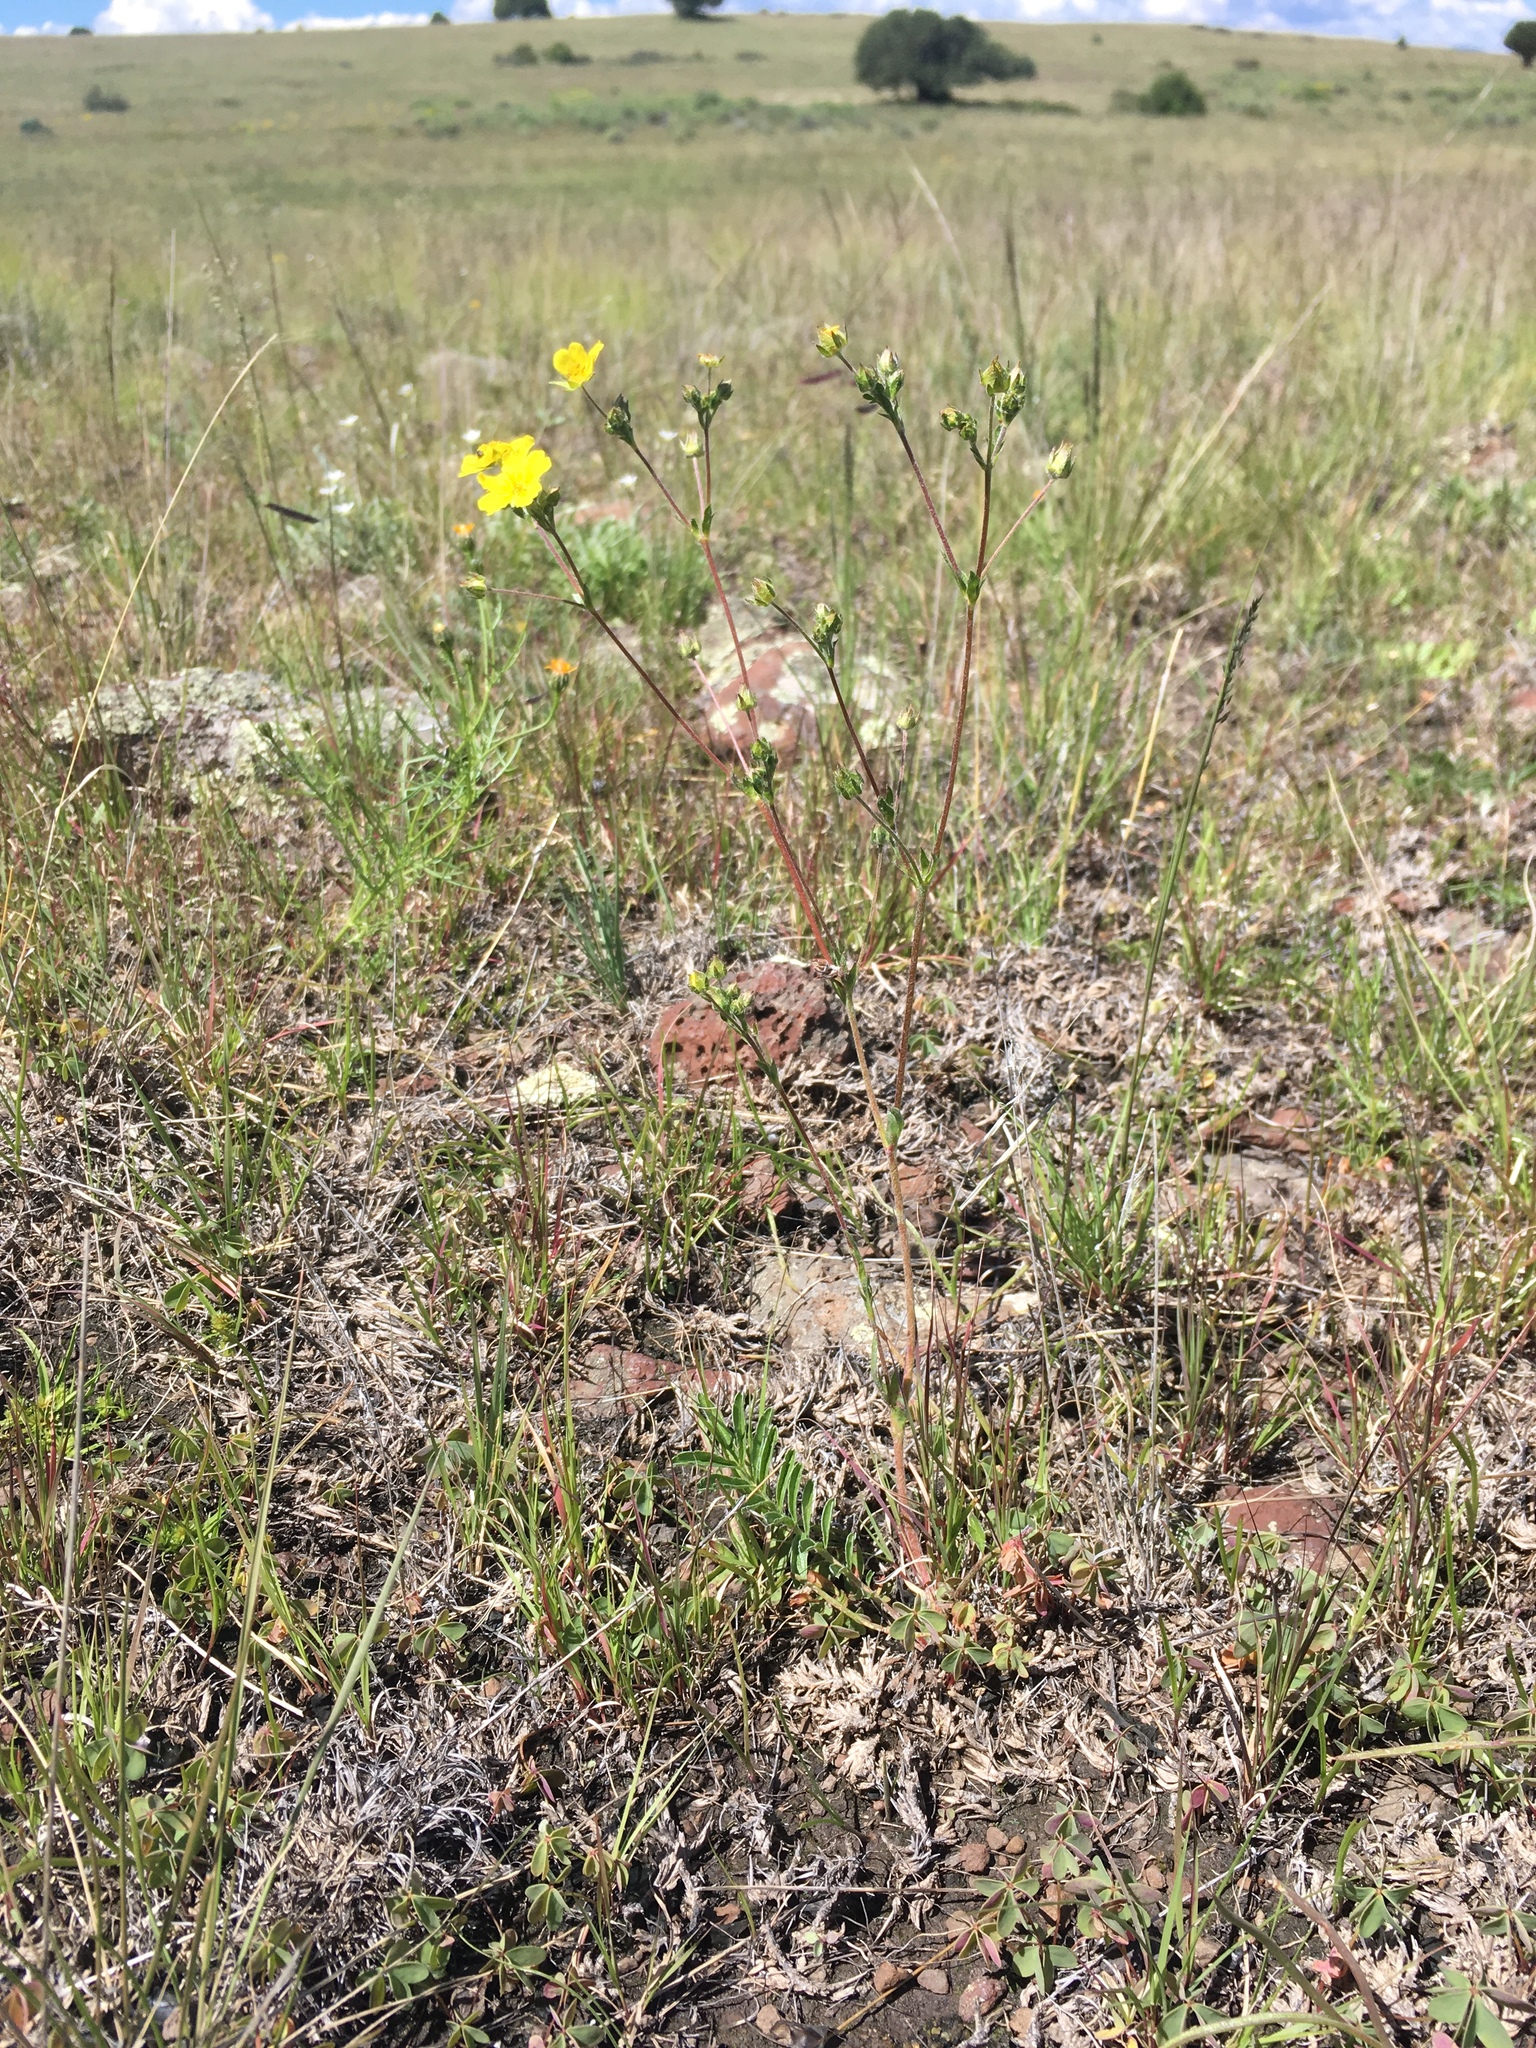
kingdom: Plantae
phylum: Tracheophyta
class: Magnoliopsida
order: Rosales
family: Rosaceae
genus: Potentilla
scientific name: Potentilla crinita
